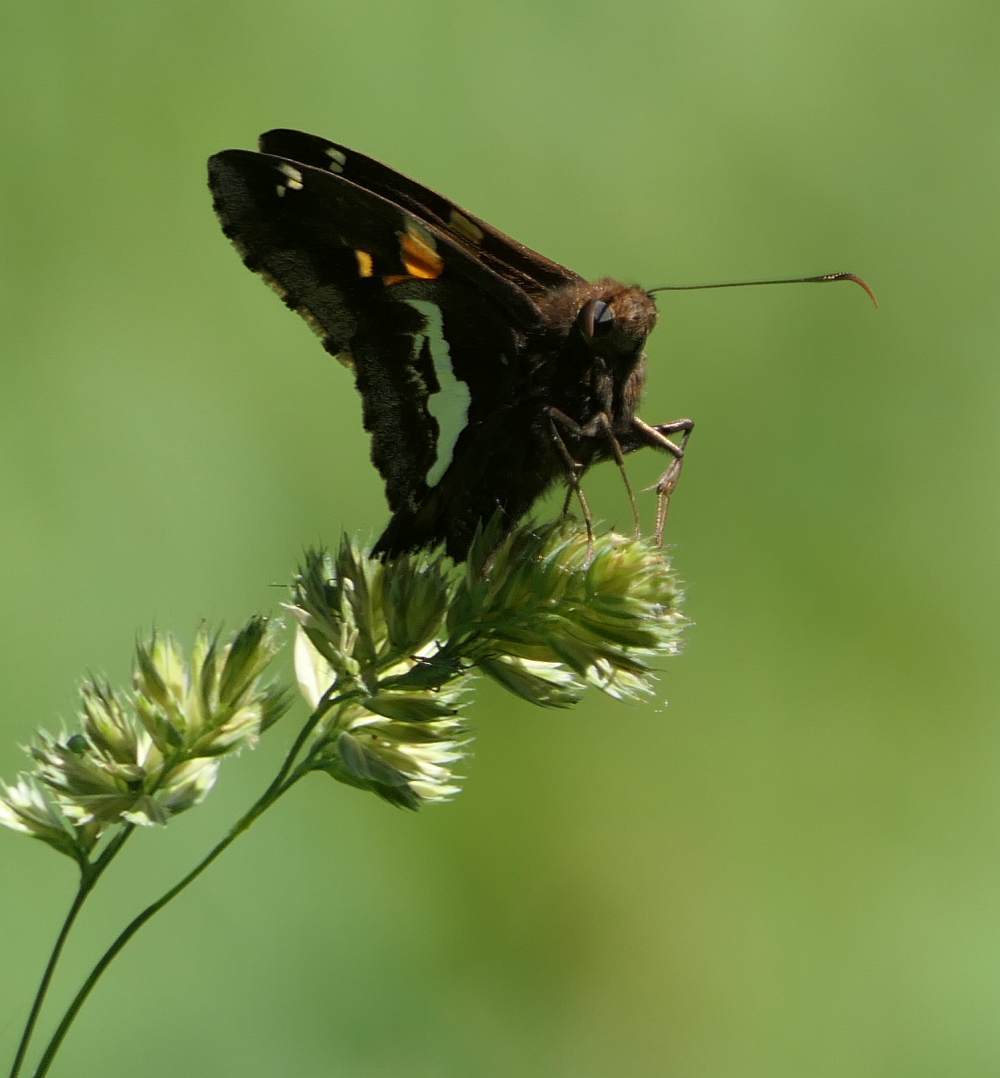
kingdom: Animalia
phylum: Arthropoda
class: Insecta
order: Lepidoptera
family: Hesperiidae
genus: Epargyreus
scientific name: Epargyreus clarus
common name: Silver-spotted skipper
